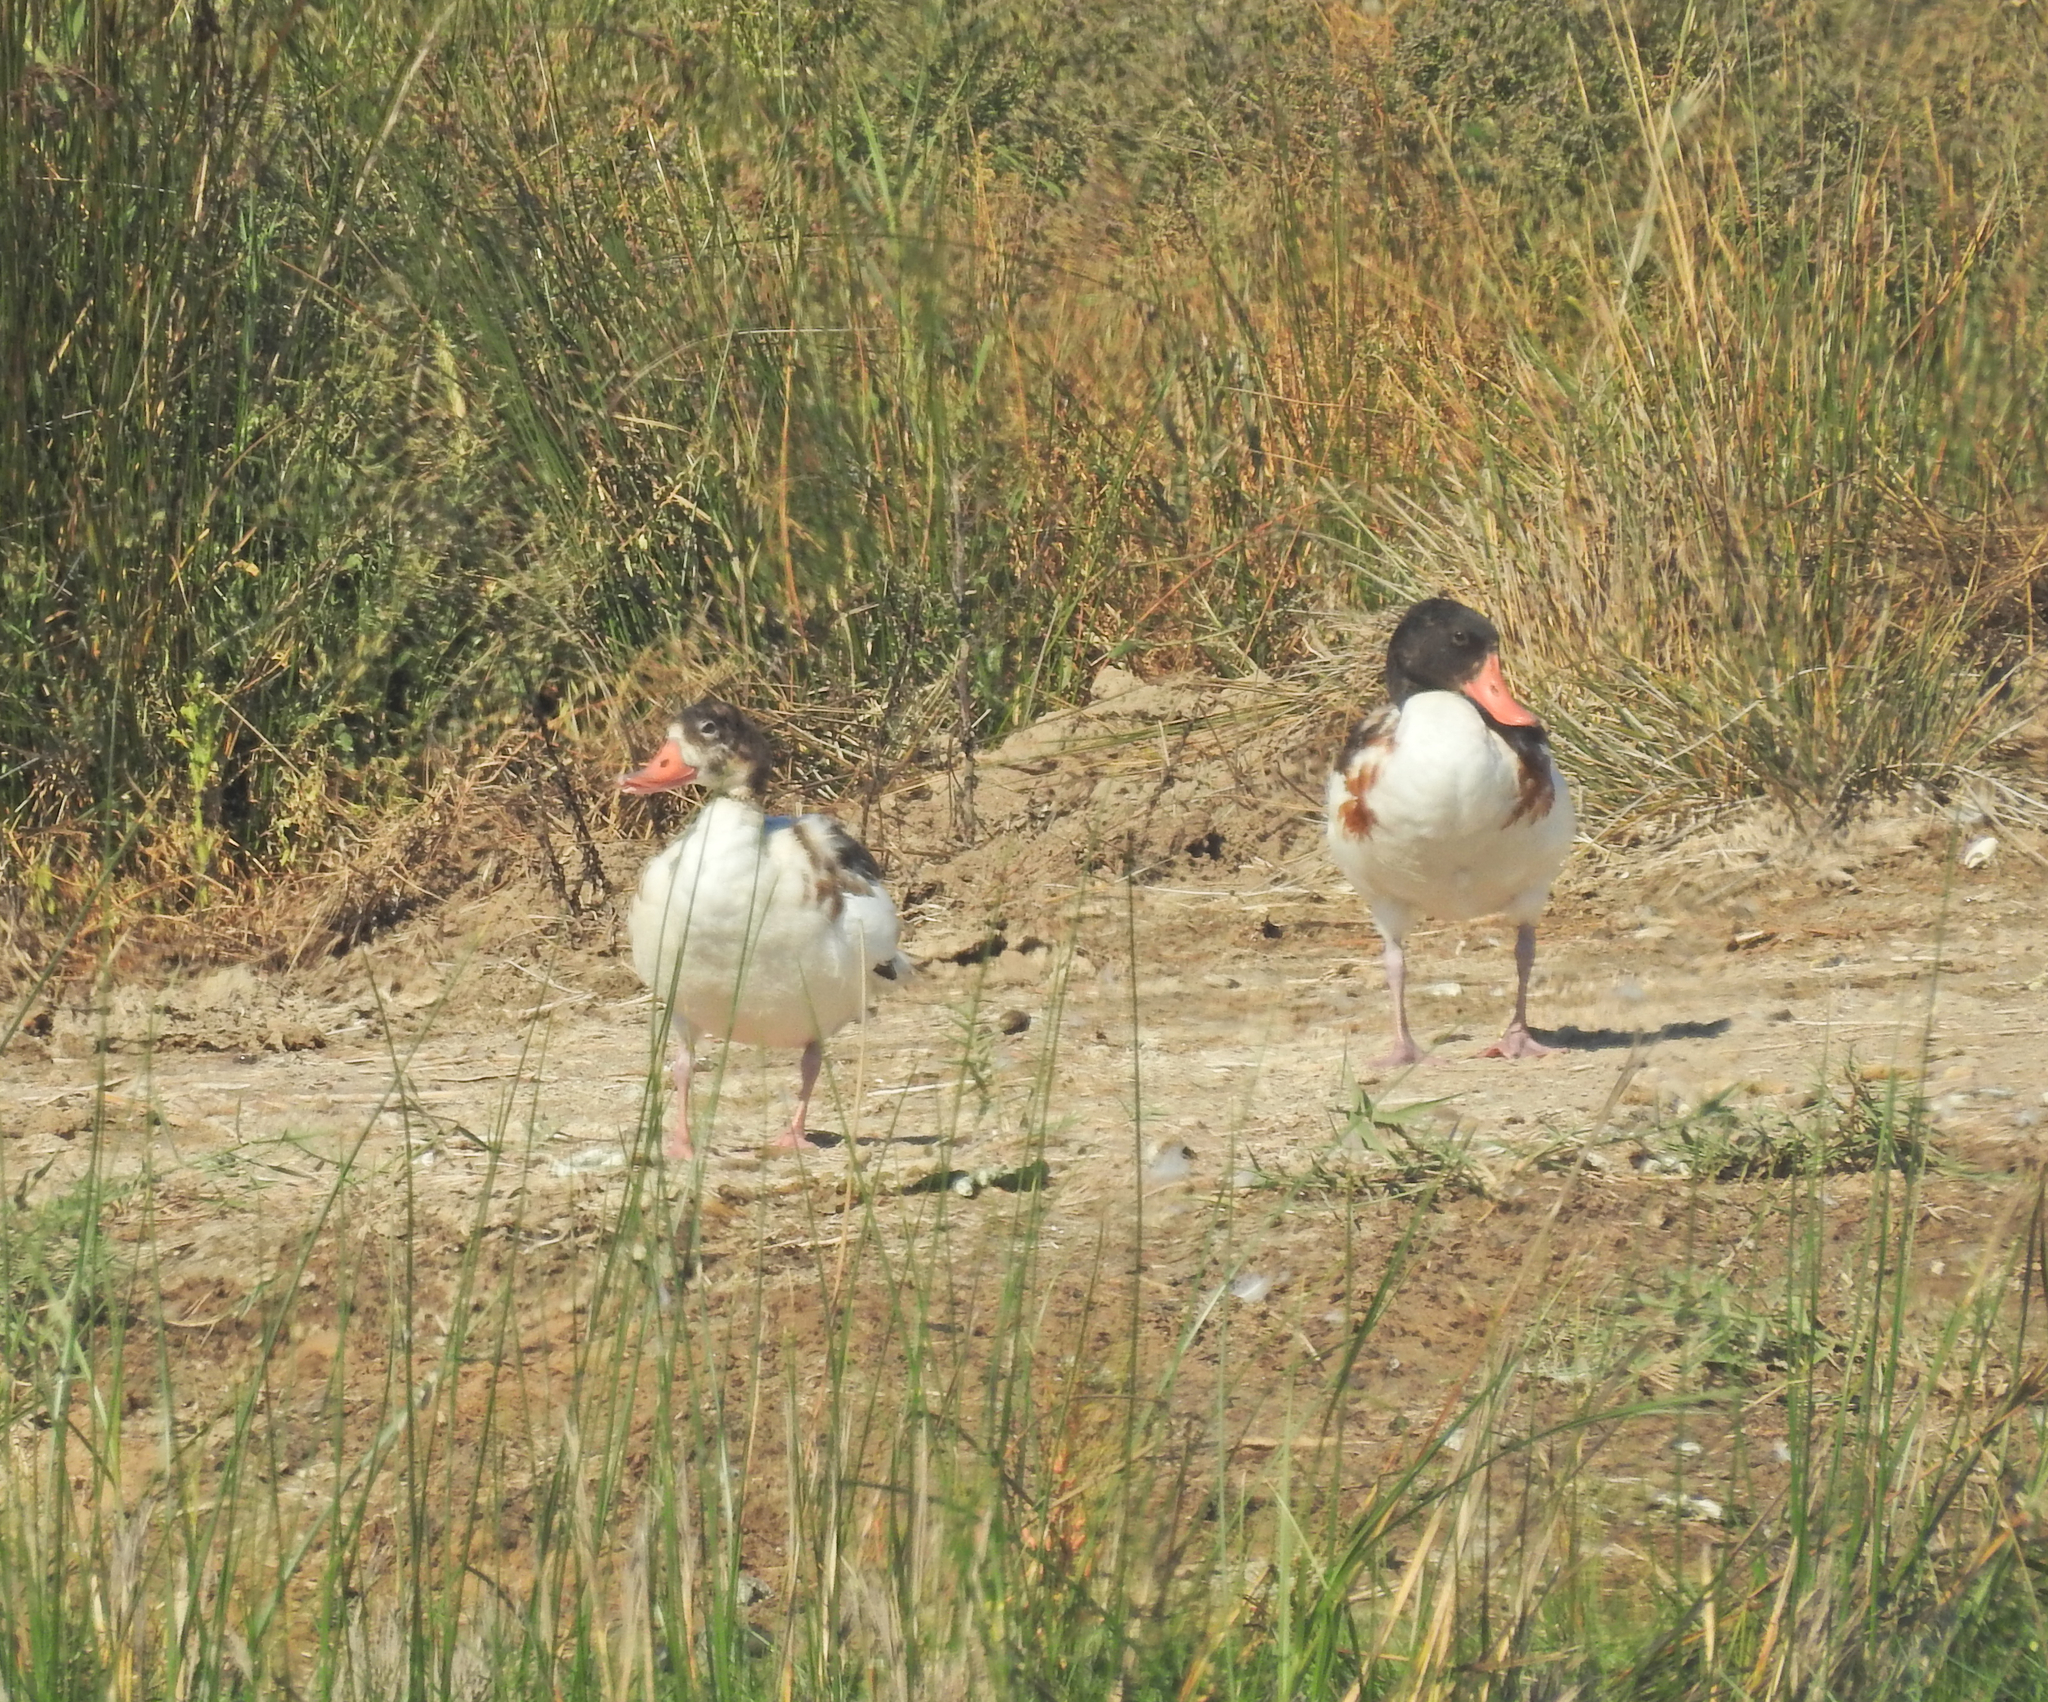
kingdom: Animalia
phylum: Chordata
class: Aves
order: Anseriformes
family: Anatidae
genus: Tadorna
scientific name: Tadorna tadorna
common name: Common shelduck
